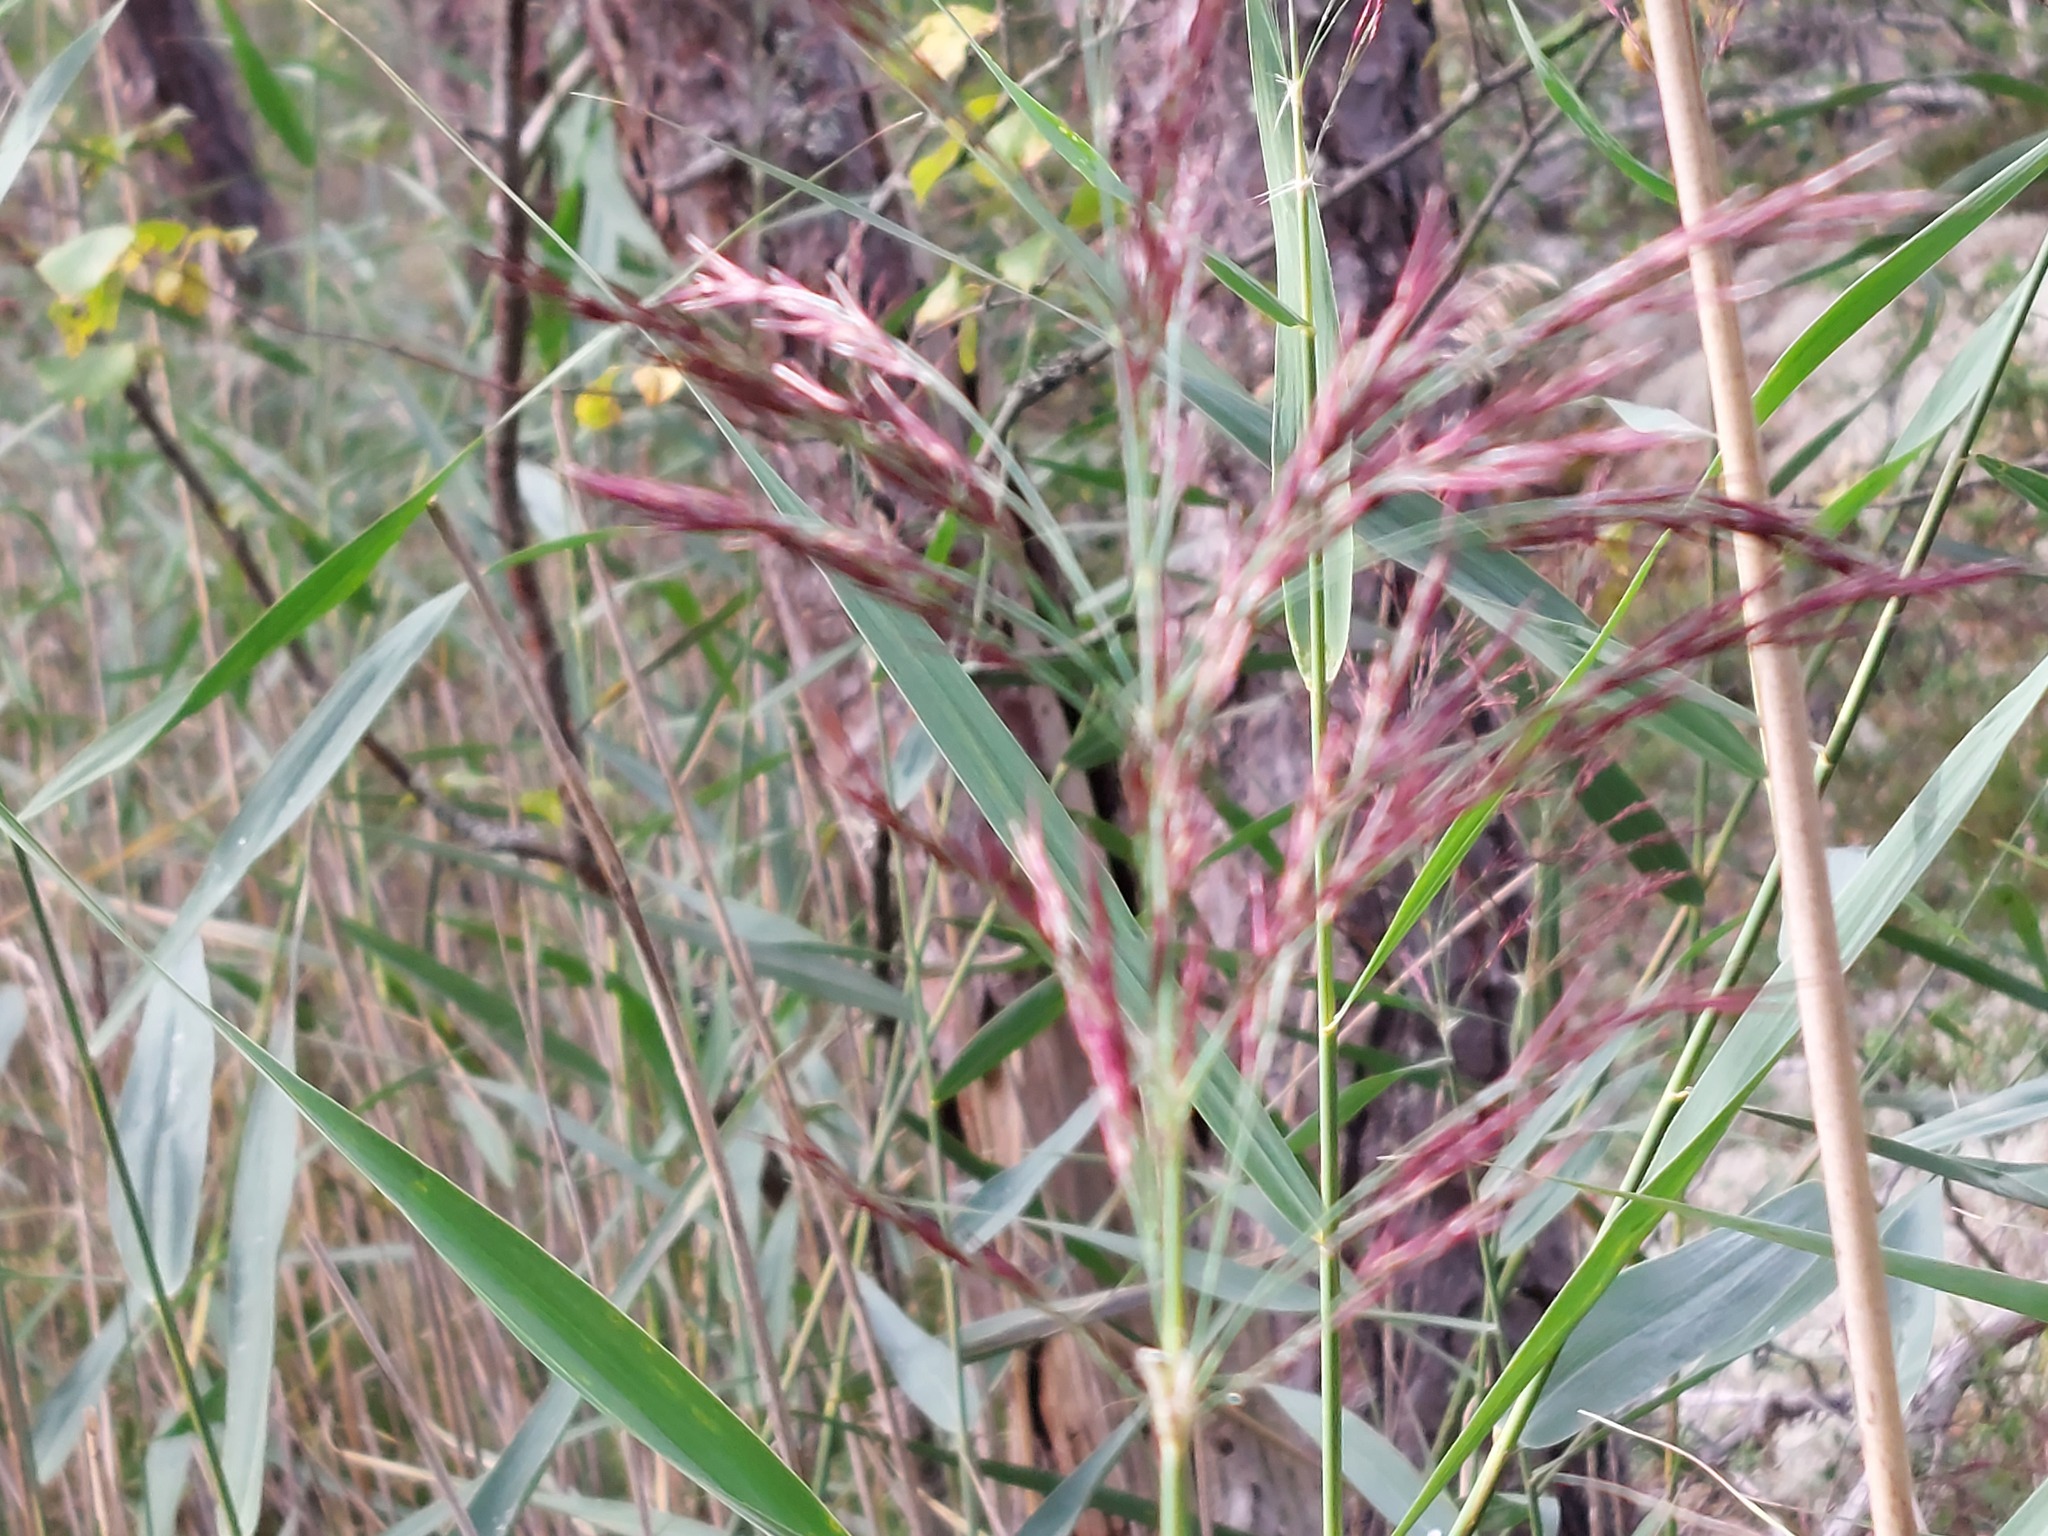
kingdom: Plantae
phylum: Tracheophyta
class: Liliopsida
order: Poales
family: Poaceae
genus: Phragmites
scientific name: Phragmites australis
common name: Common reed
